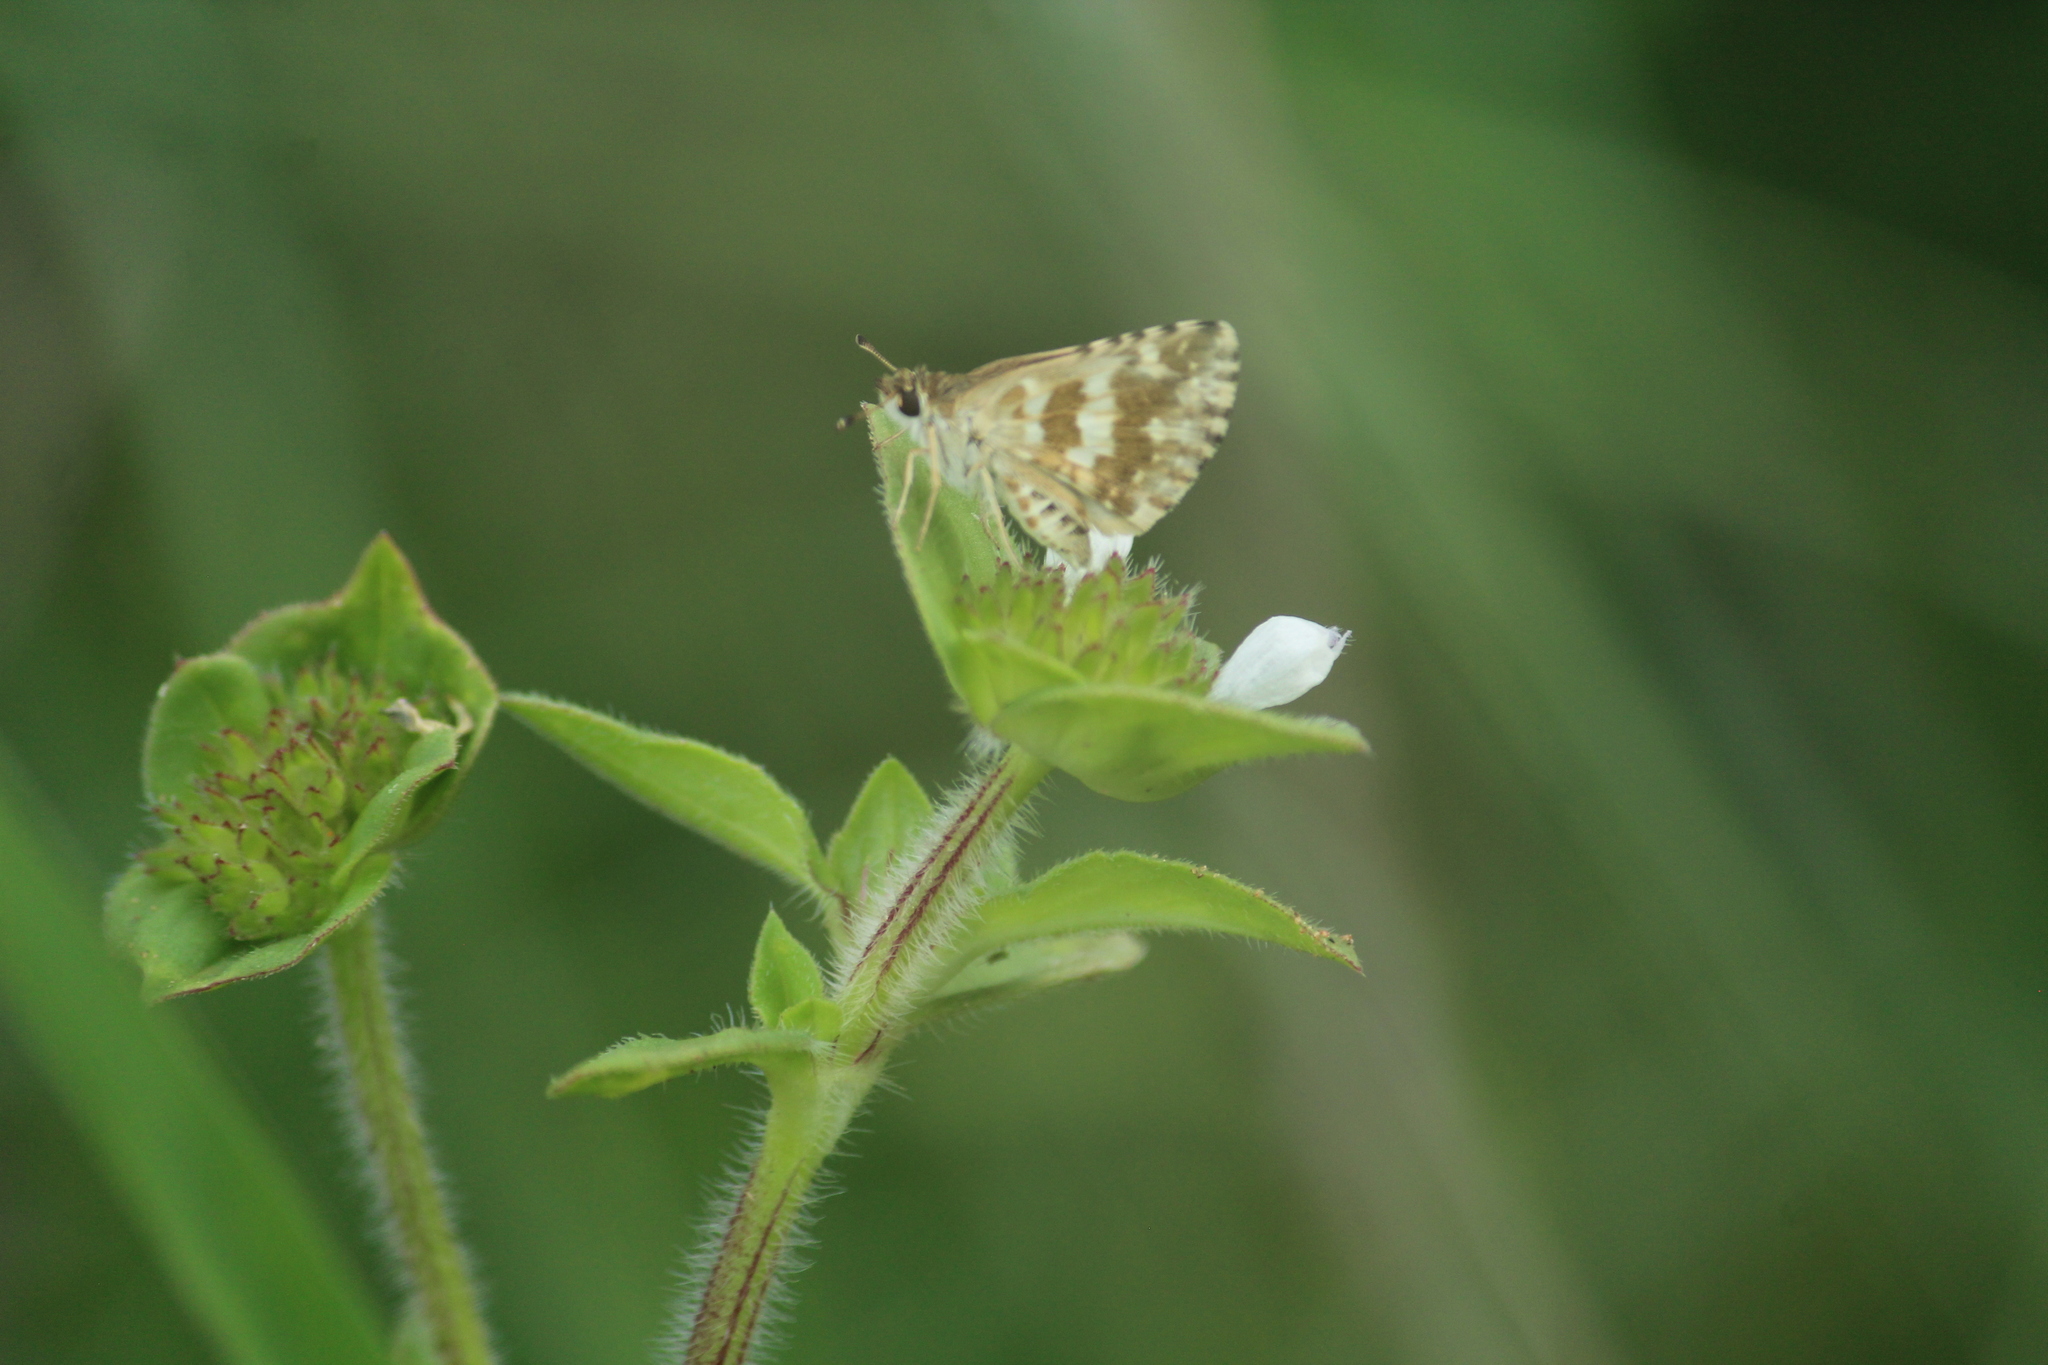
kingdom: Animalia
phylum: Arthropoda
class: Insecta
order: Lepidoptera
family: Hesperiidae
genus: Spialia
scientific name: Spialia galba
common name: Indian skipper
